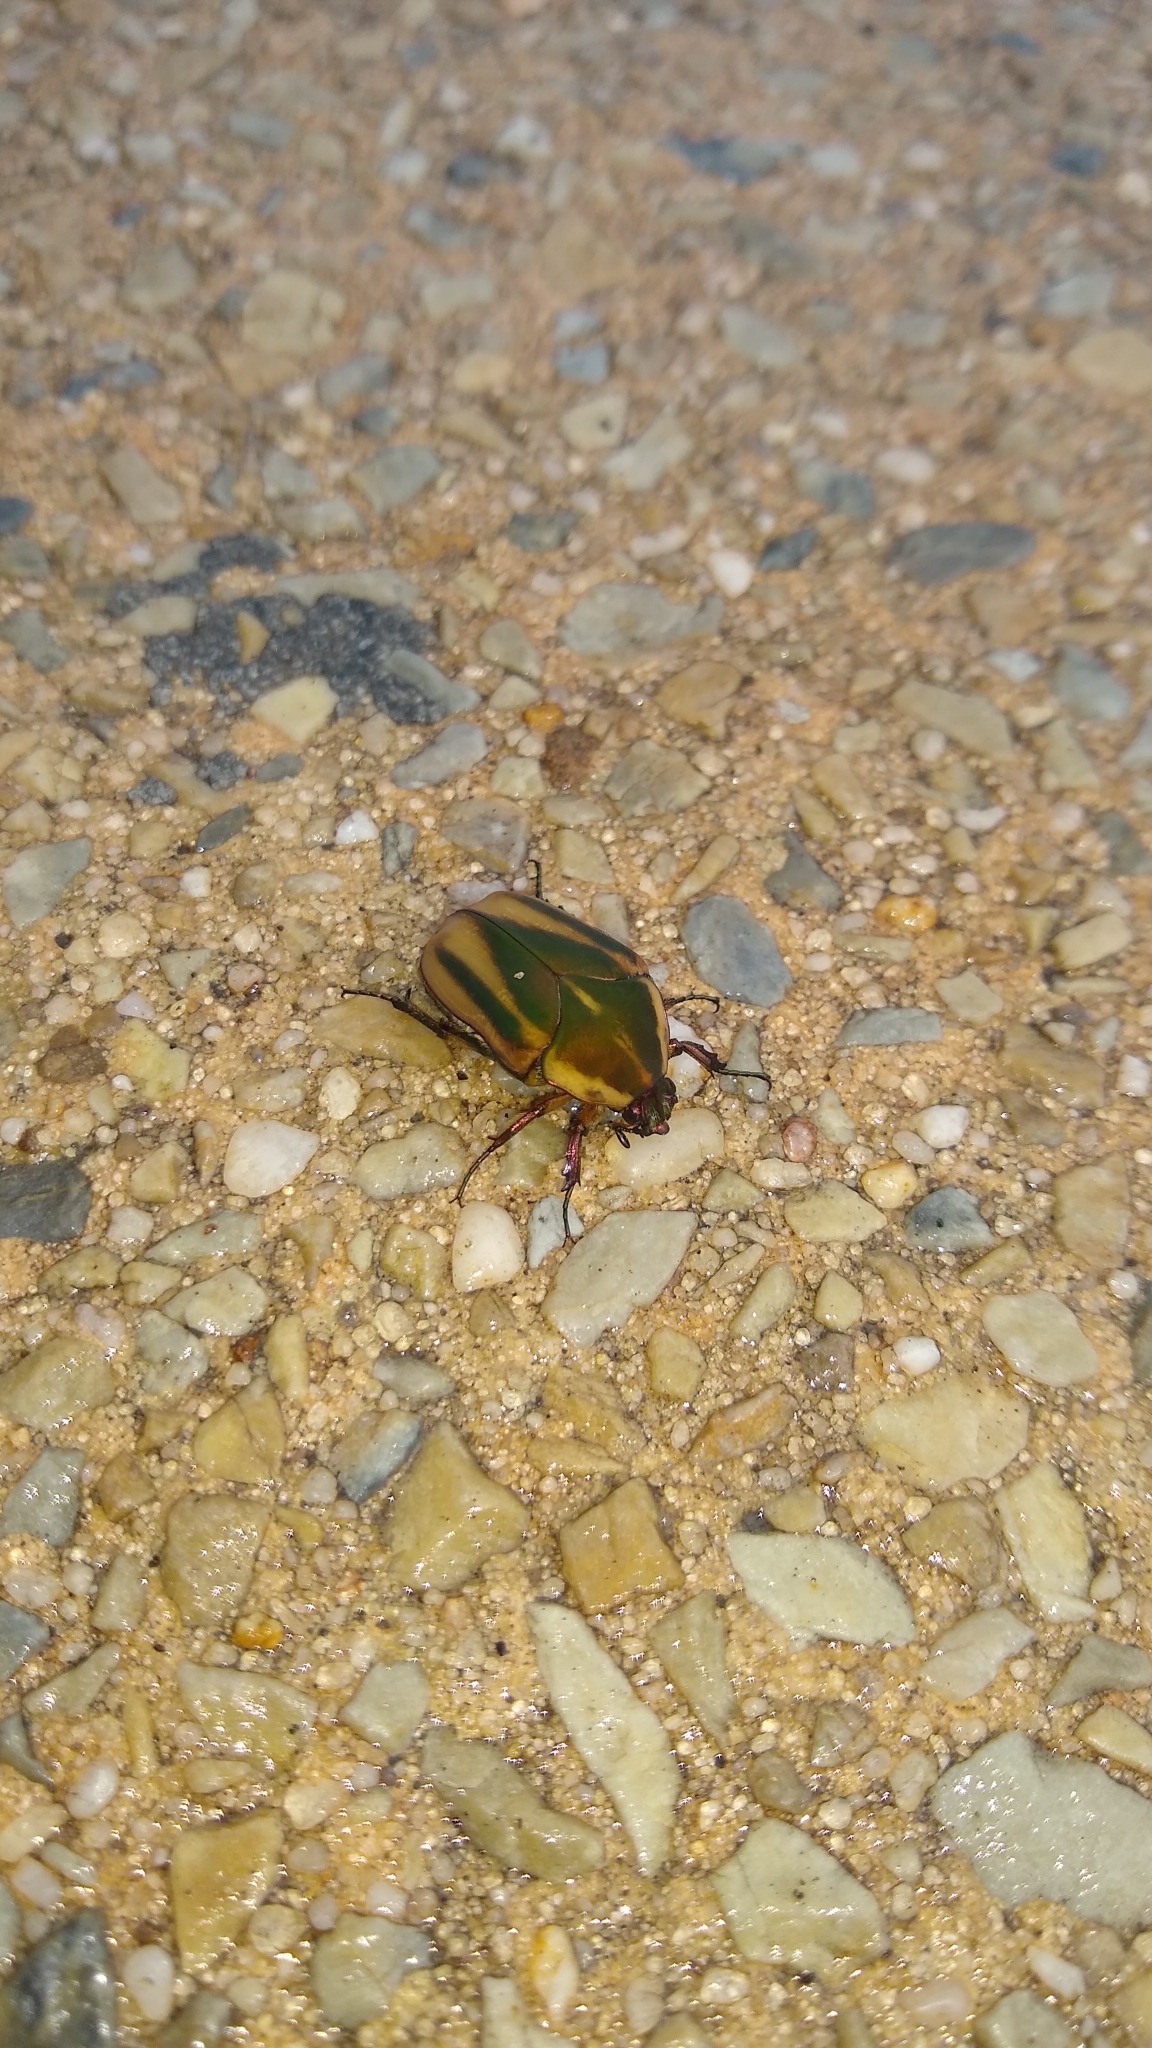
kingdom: Animalia
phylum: Arthropoda
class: Insecta
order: Coleoptera
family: Scarabaeidae
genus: Cotinis
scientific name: Cotinis nitida
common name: Common green june beetle
